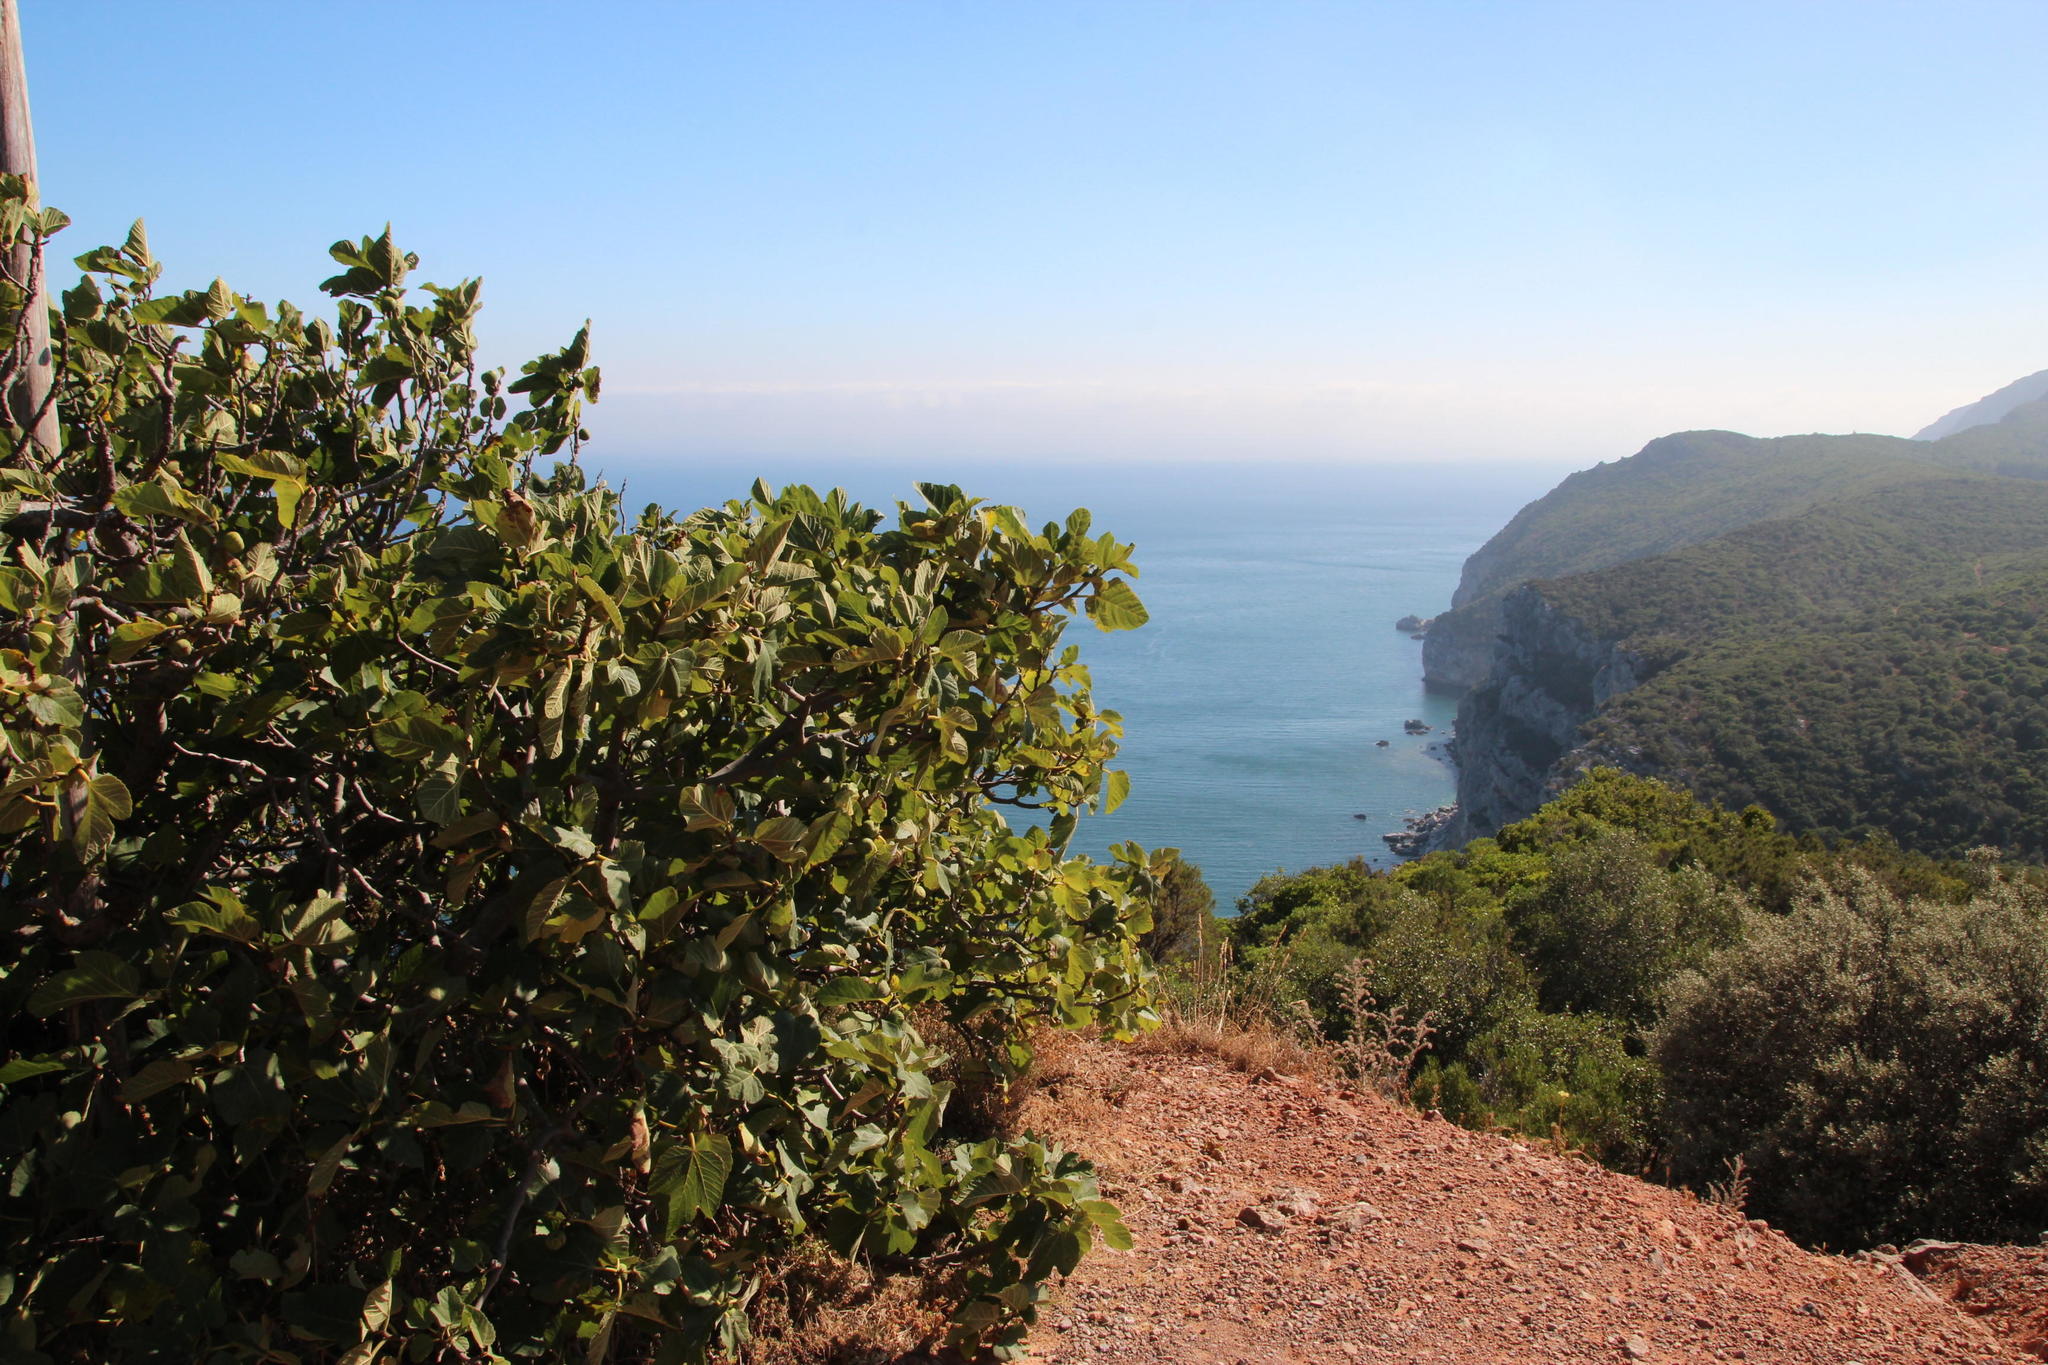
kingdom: Plantae
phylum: Tracheophyta
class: Magnoliopsida
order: Rosales
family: Moraceae
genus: Ficus
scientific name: Ficus carica
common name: Fig
